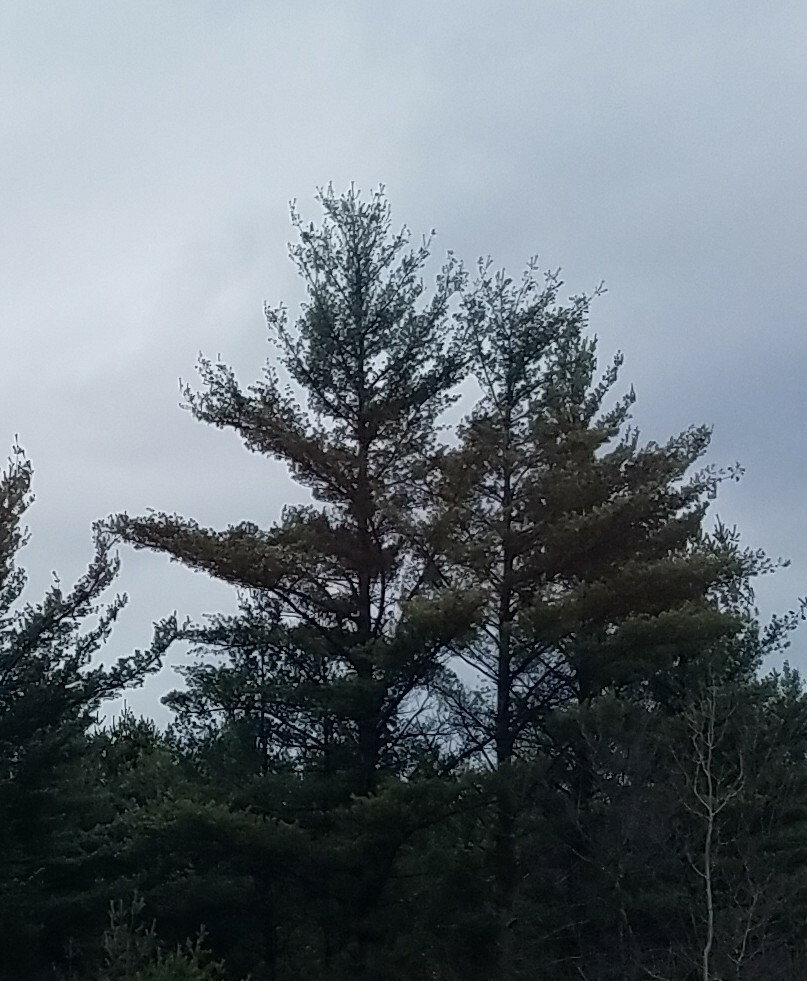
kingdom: Plantae
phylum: Tracheophyta
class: Pinopsida
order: Pinales
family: Pinaceae
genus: Pinus
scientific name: Pinus strobus
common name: Weymouth pine
